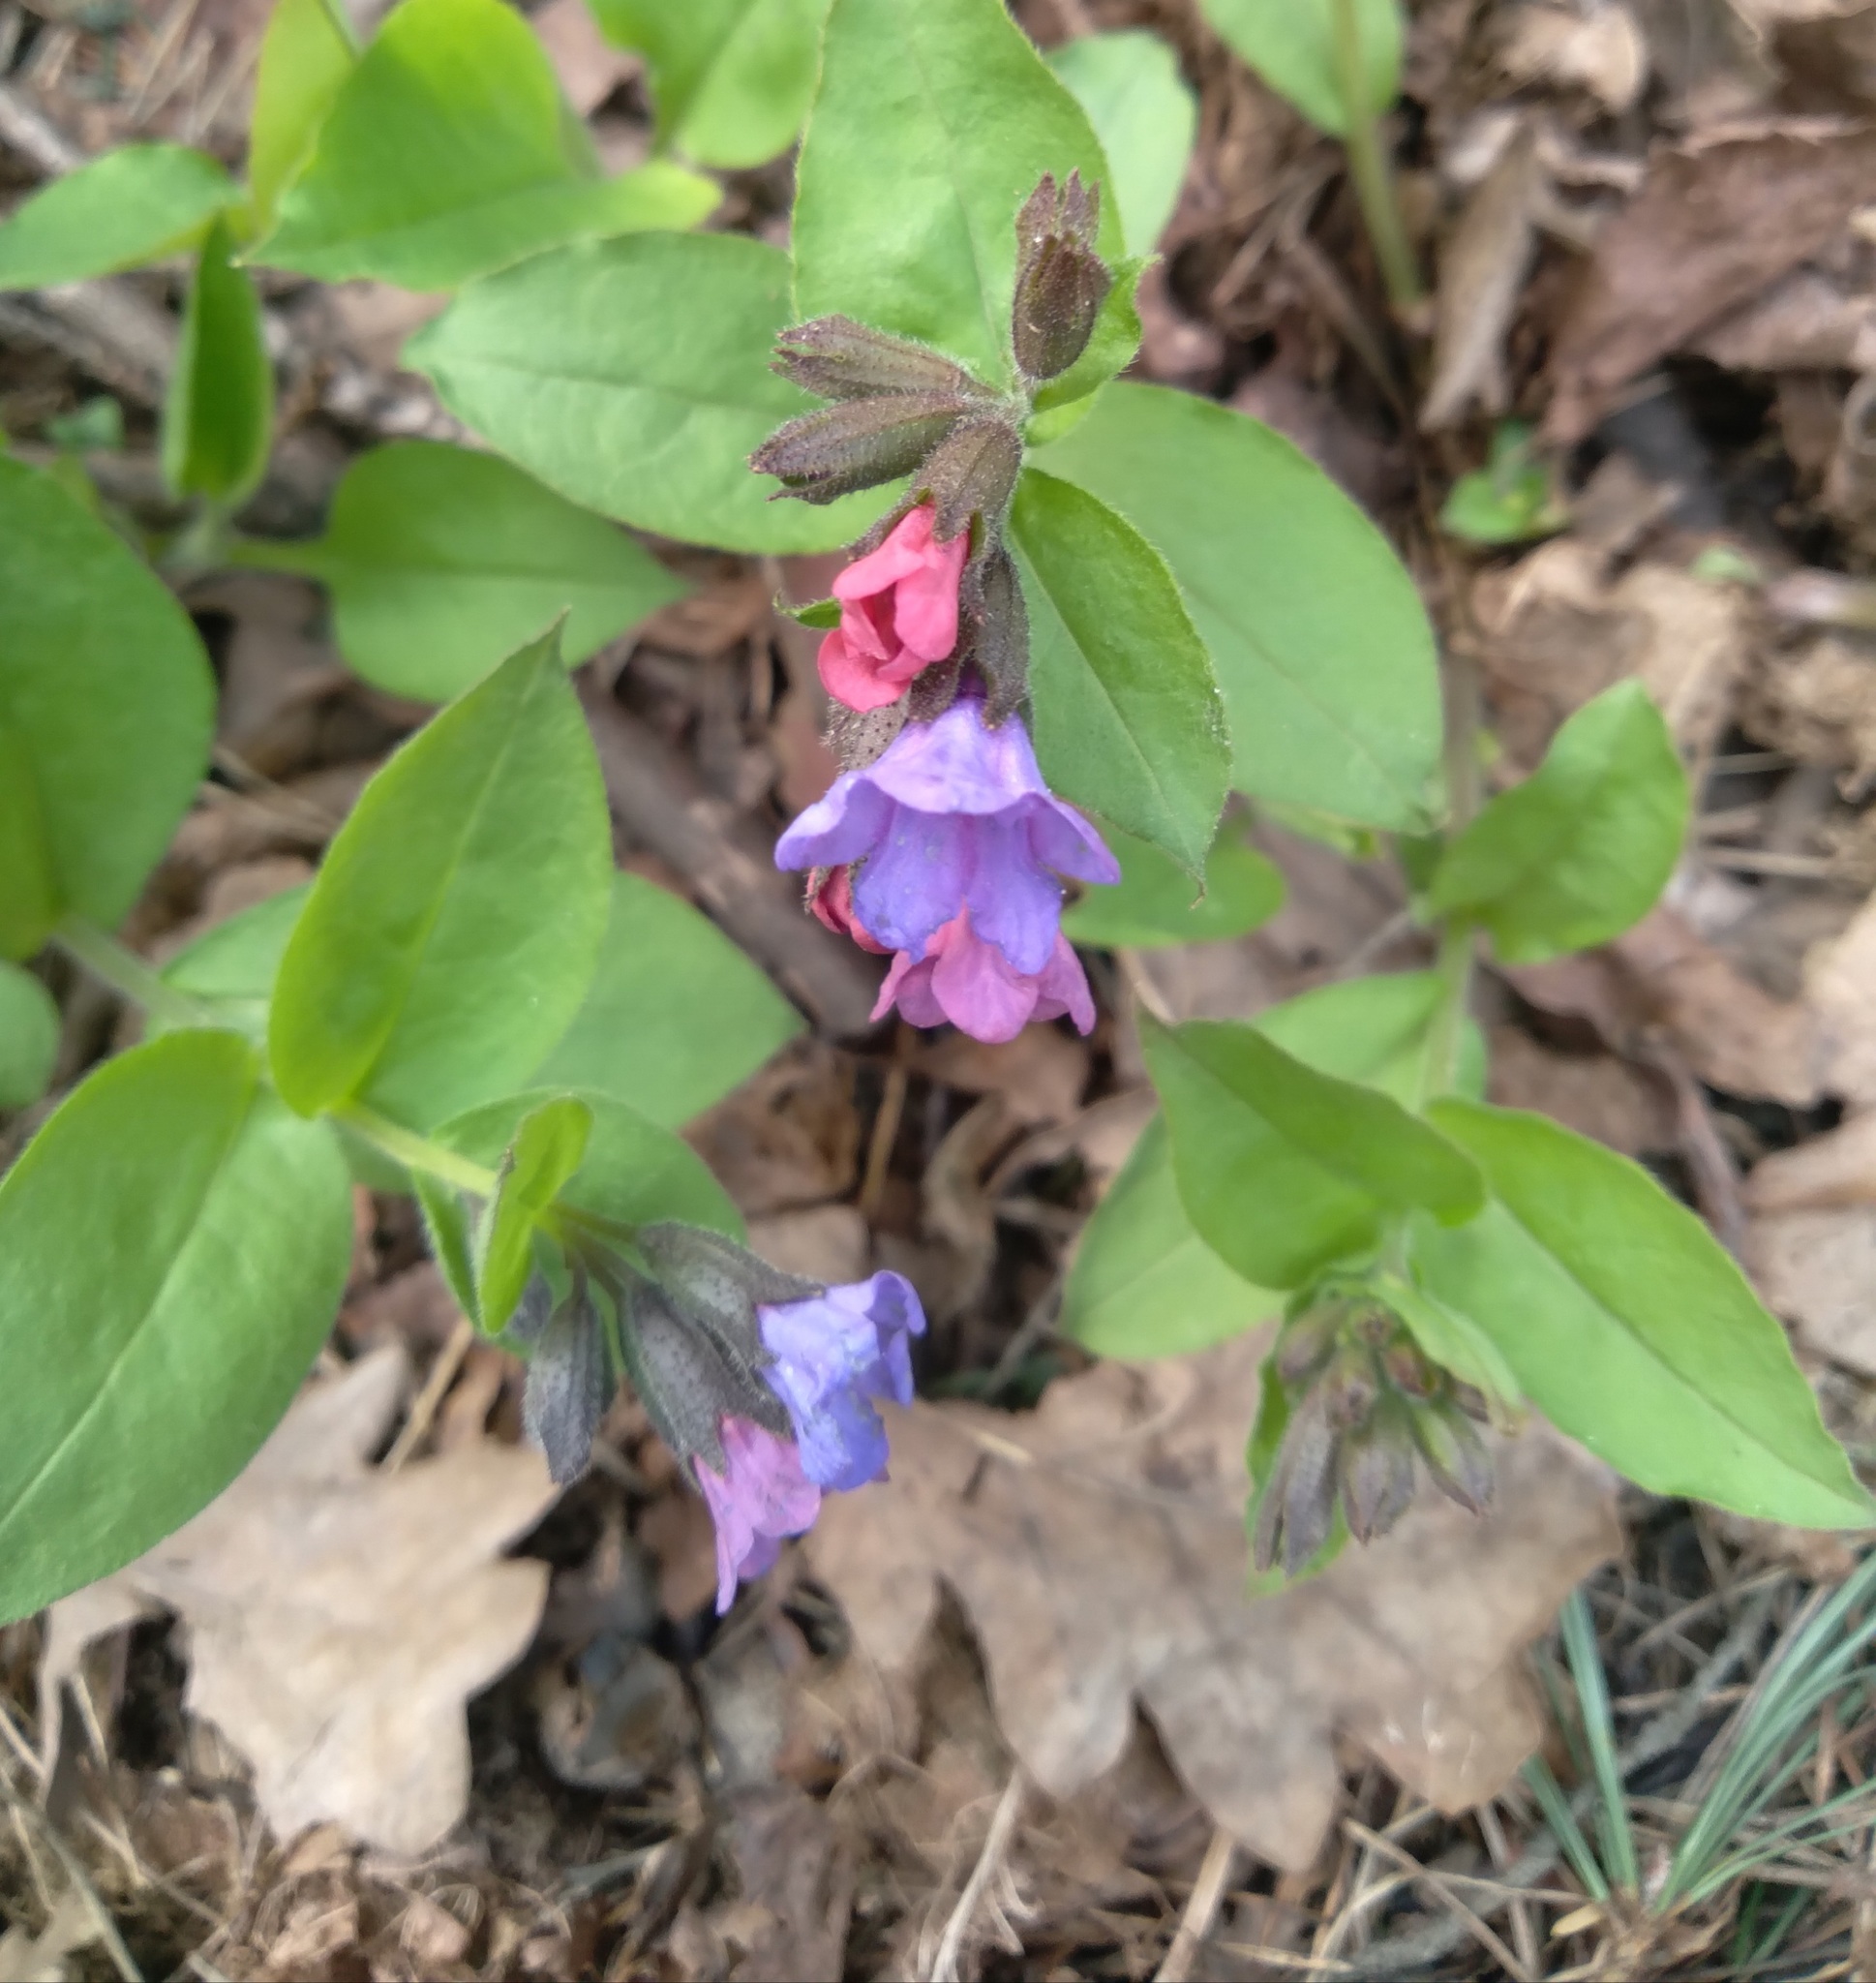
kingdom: Plantae
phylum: Tracheophyta
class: Magnoliopsida
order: Boraginales
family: Boraginaceae
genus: Pulmonaria
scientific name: Pulmonaria obscura
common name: Suffolk lungwort
